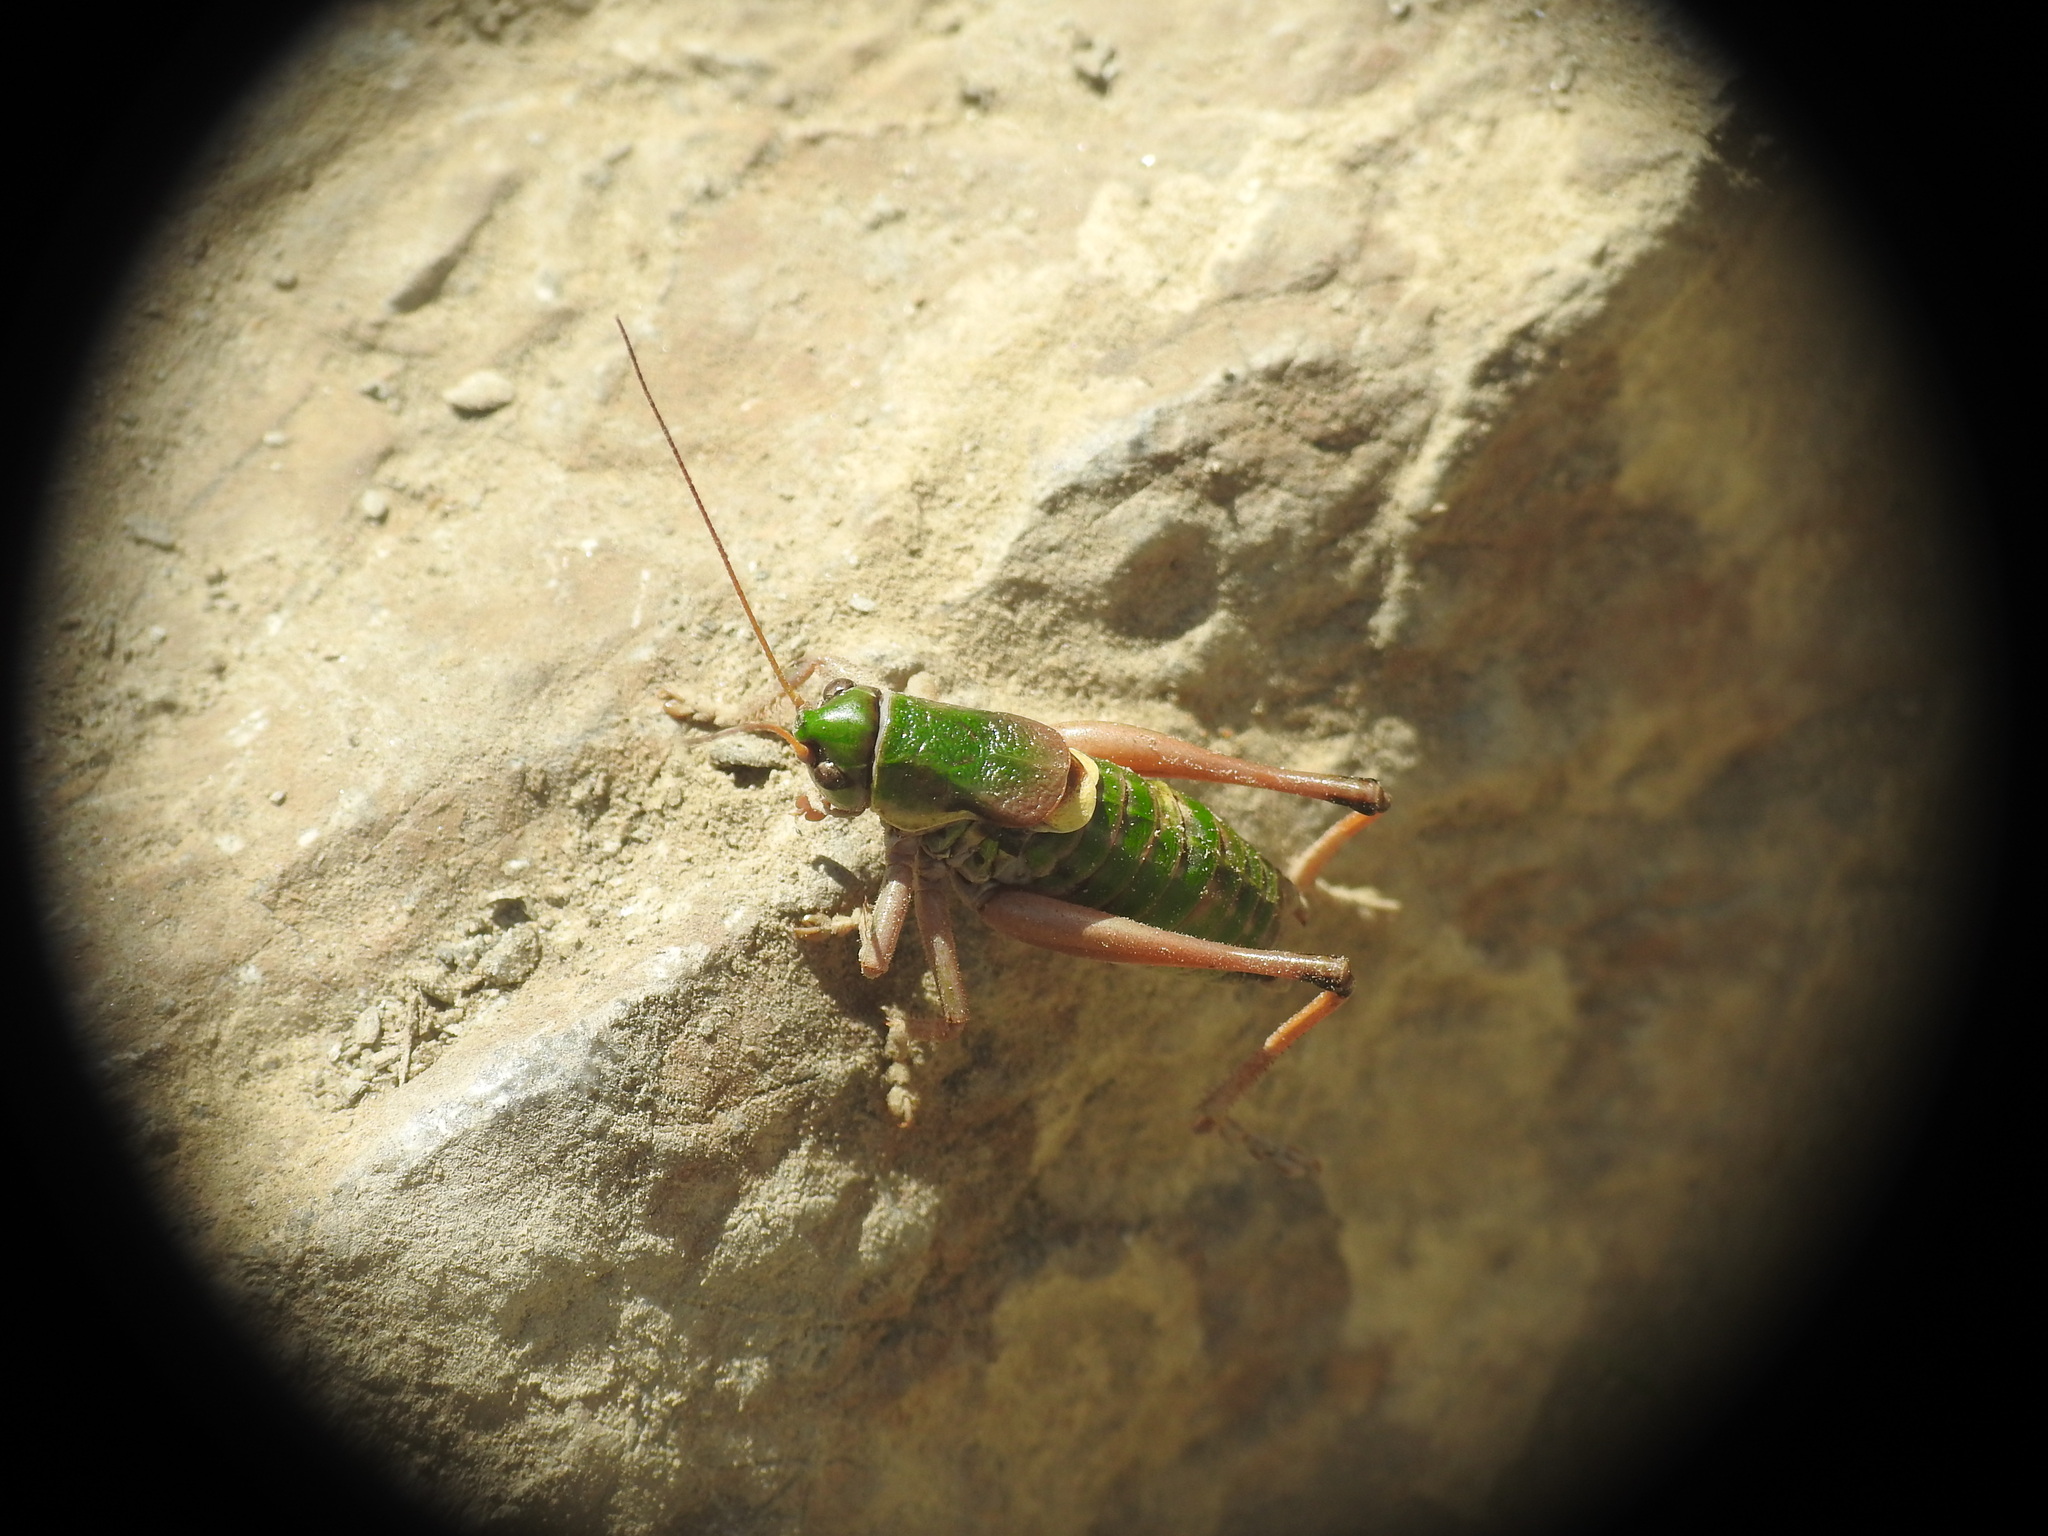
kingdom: Animalia
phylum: Arthropoda
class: Insecta
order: Orthoptera
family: Tettigoniidae
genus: Anonconotus
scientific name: Anonconotus alpinus
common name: Small alpine bush-cricket
